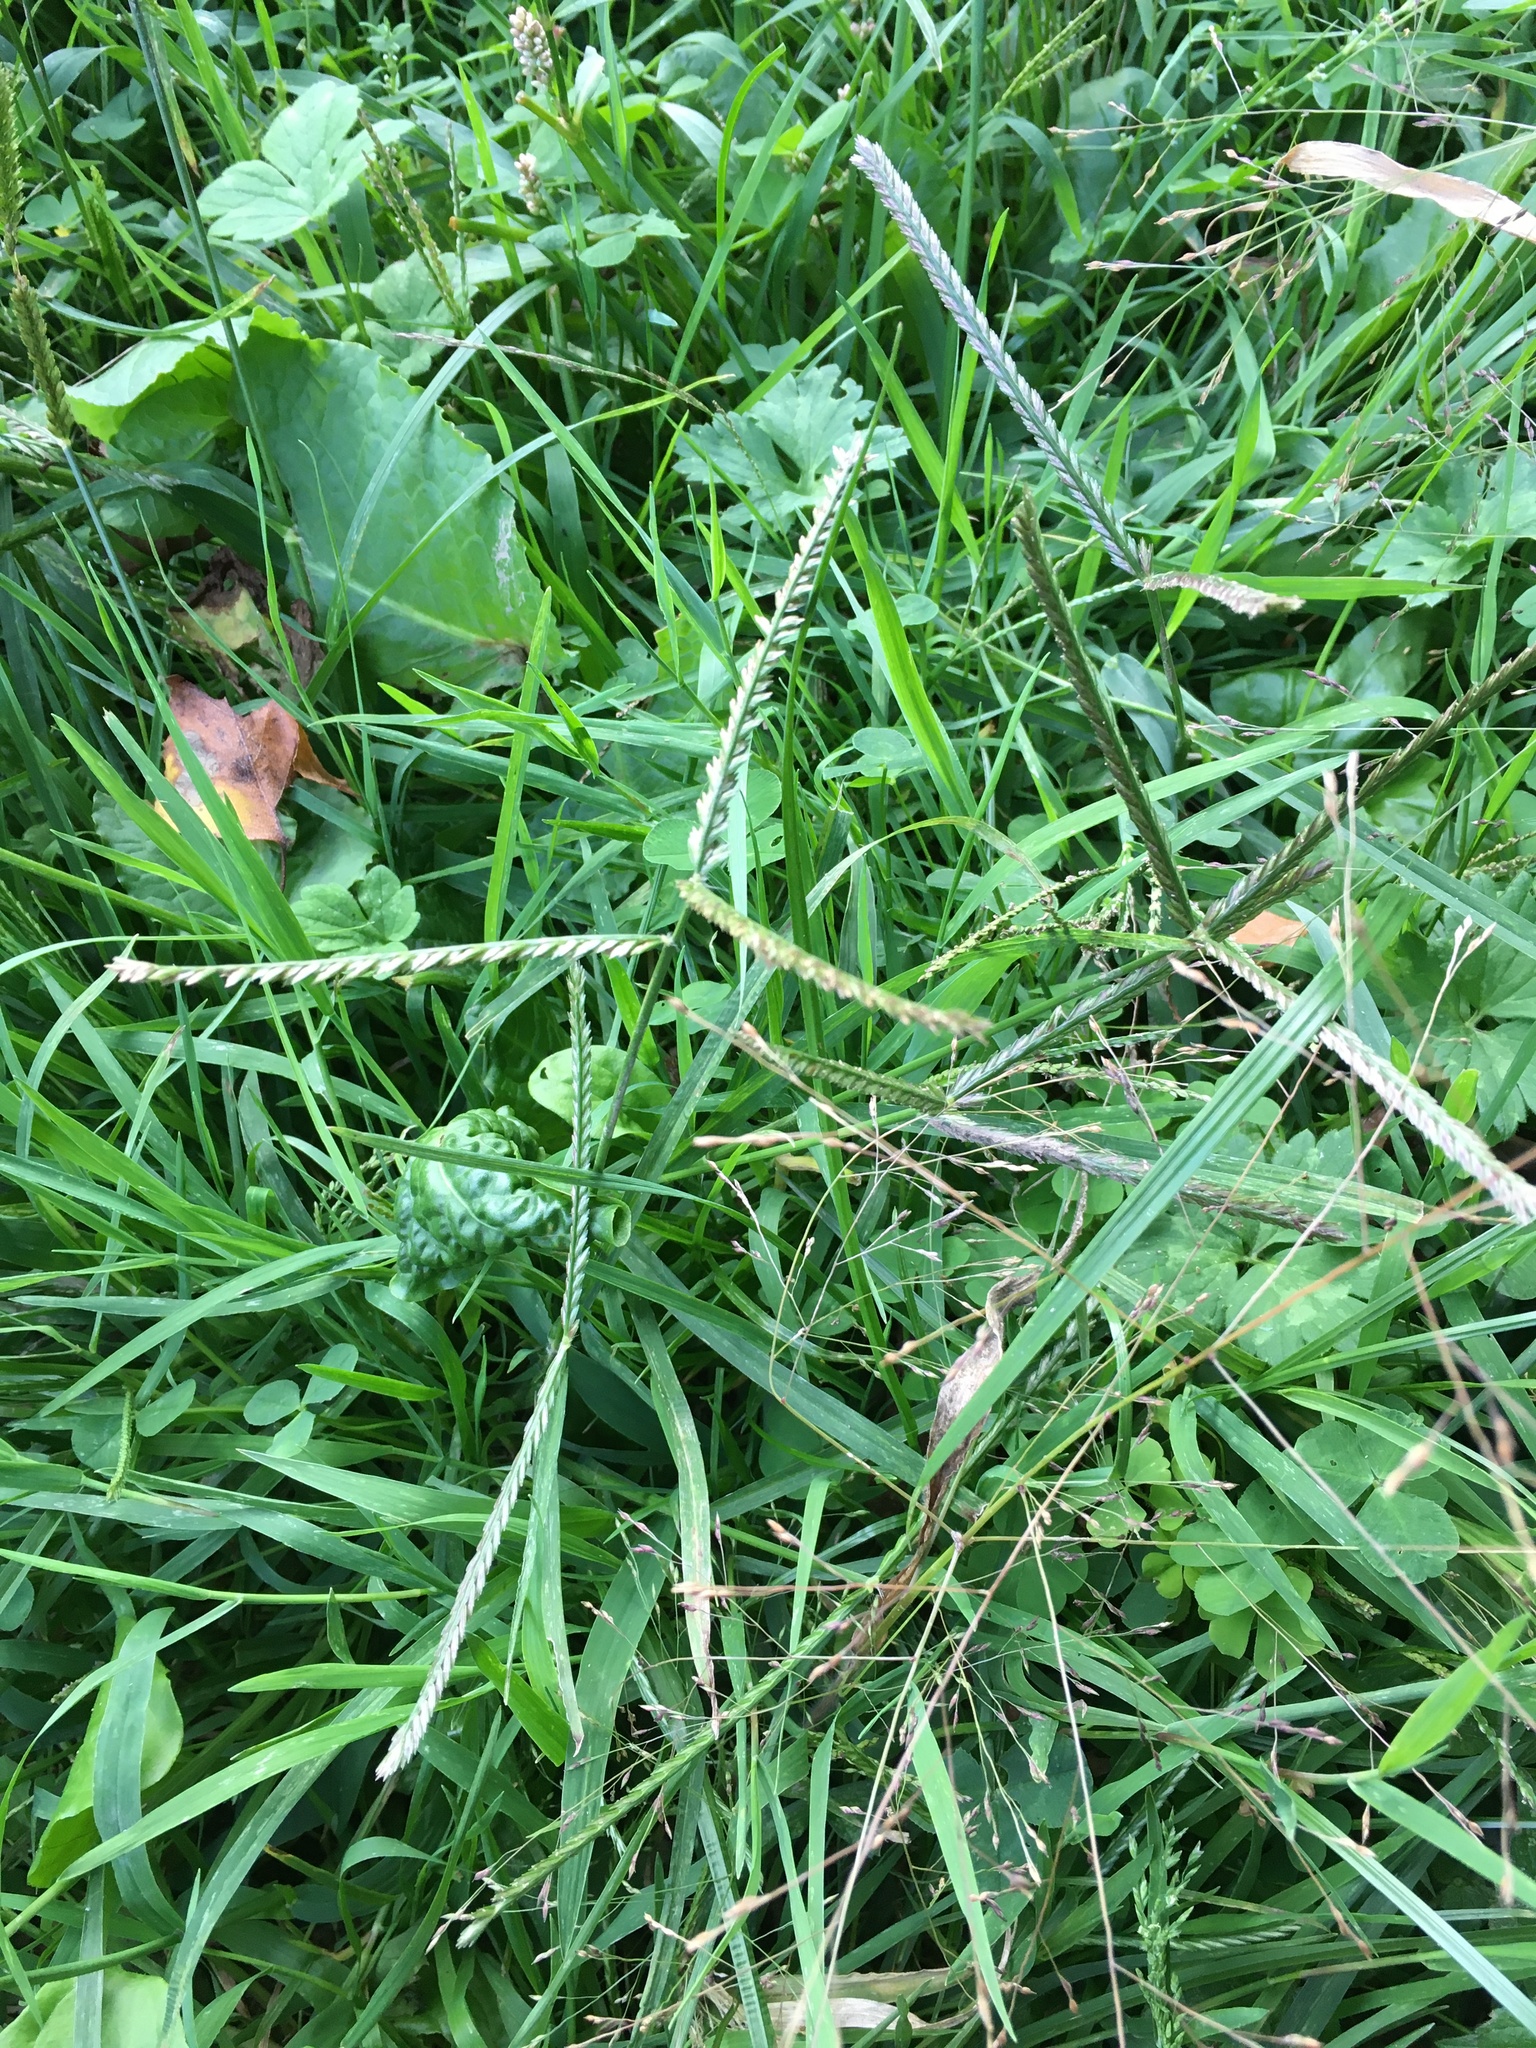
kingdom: Plantae
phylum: Tracheophyta
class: Liliopsida
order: Poales
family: Poaceae
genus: Eleusine
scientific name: Eleusine indica
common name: Yard-grass
